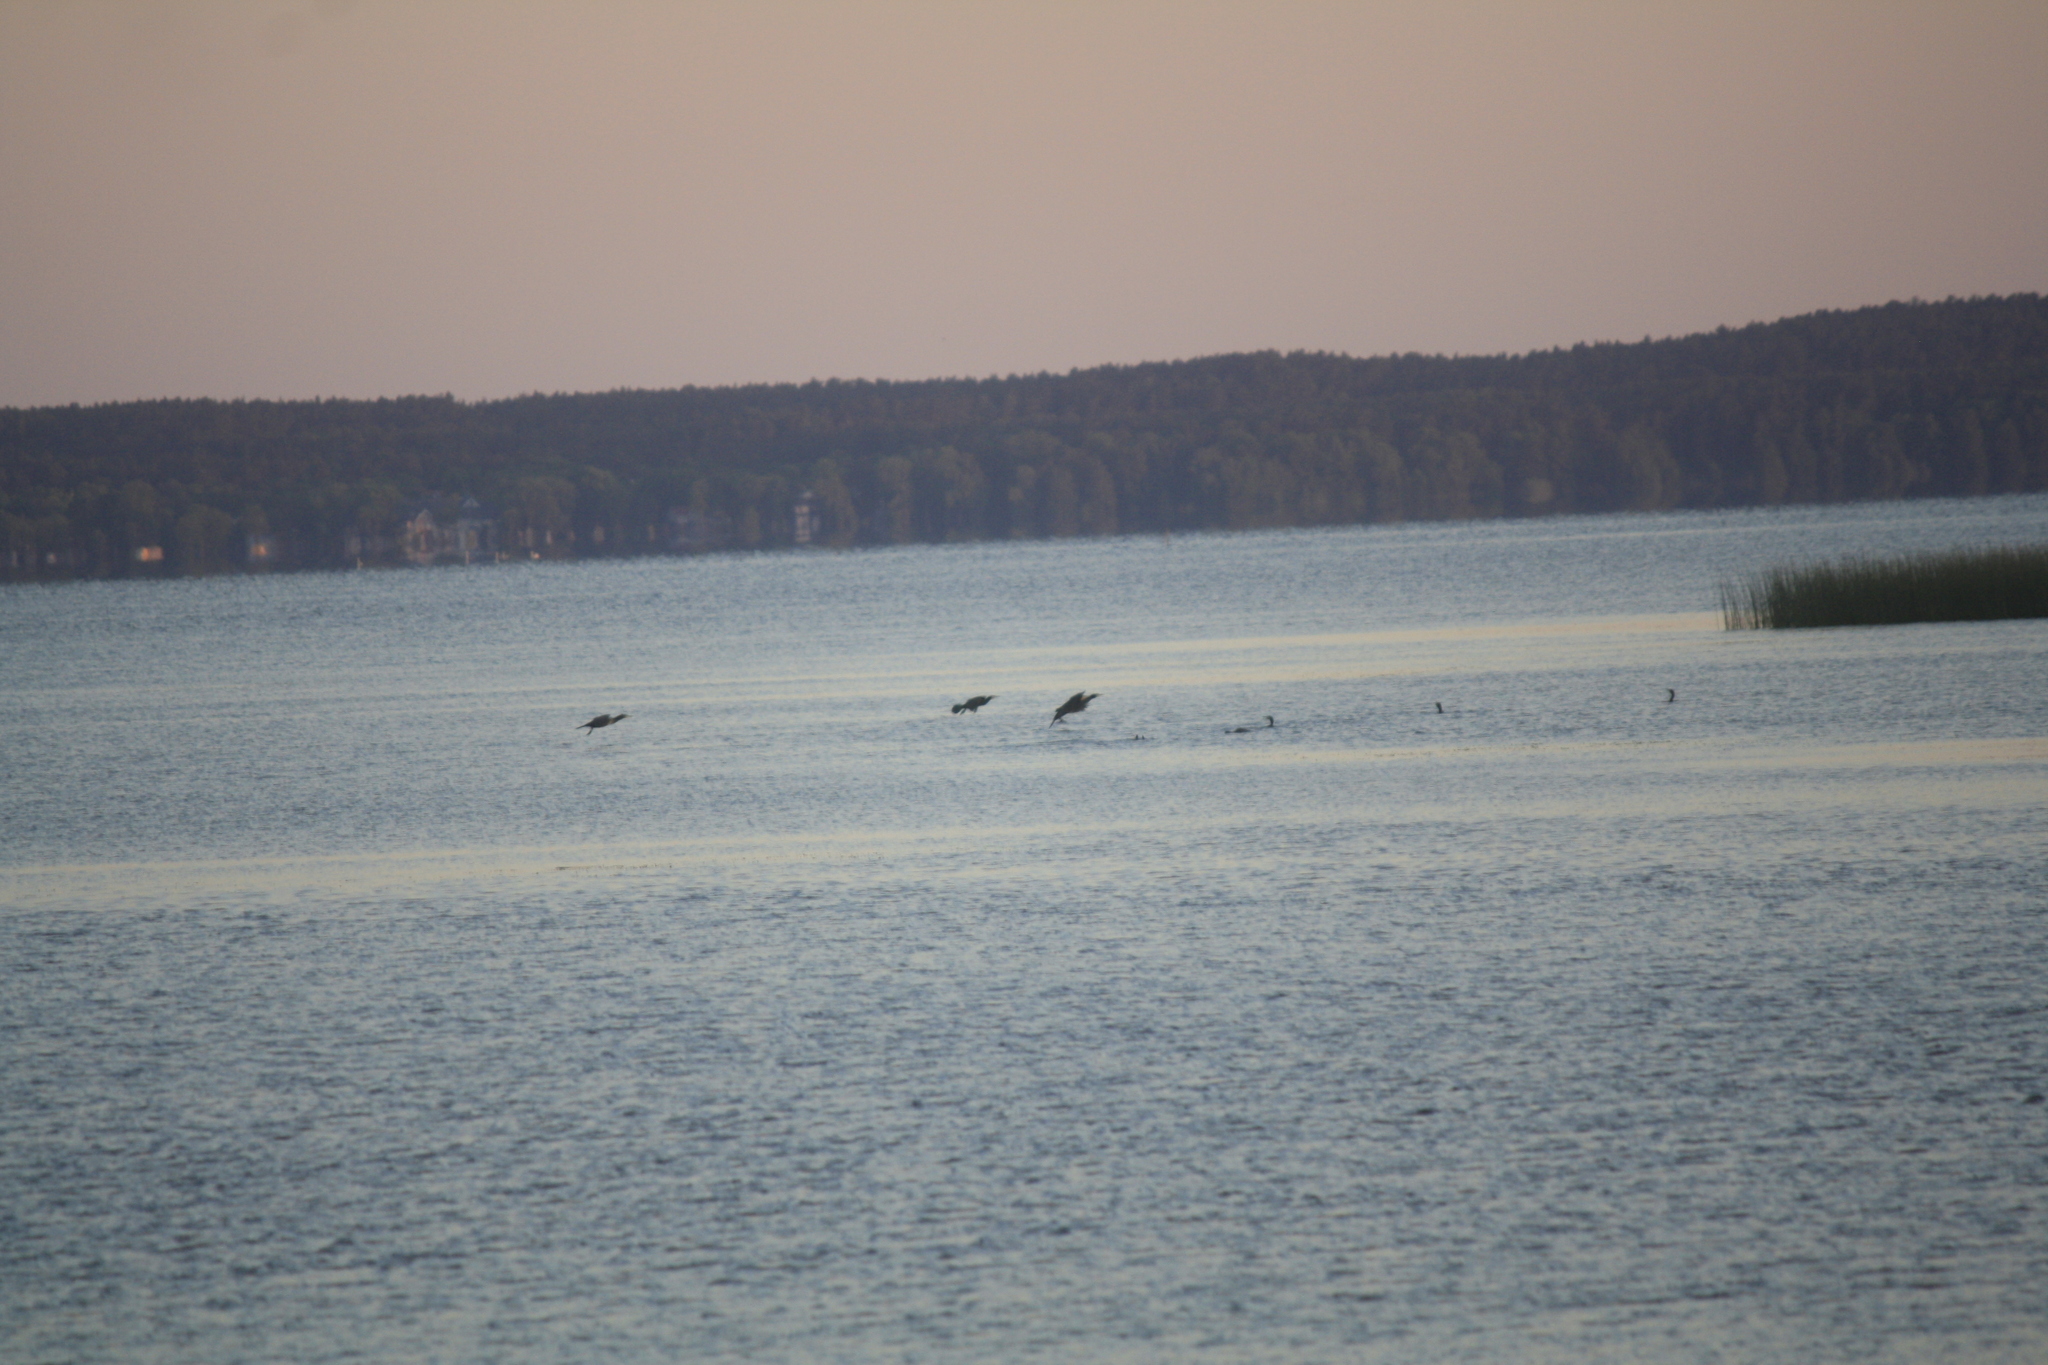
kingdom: Animalia
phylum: Chordata
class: Aves
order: Suliformes
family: Phalacrocoracidae
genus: Phalacrocorax
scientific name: Phalacrocorax carbo
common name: Great cormorant
